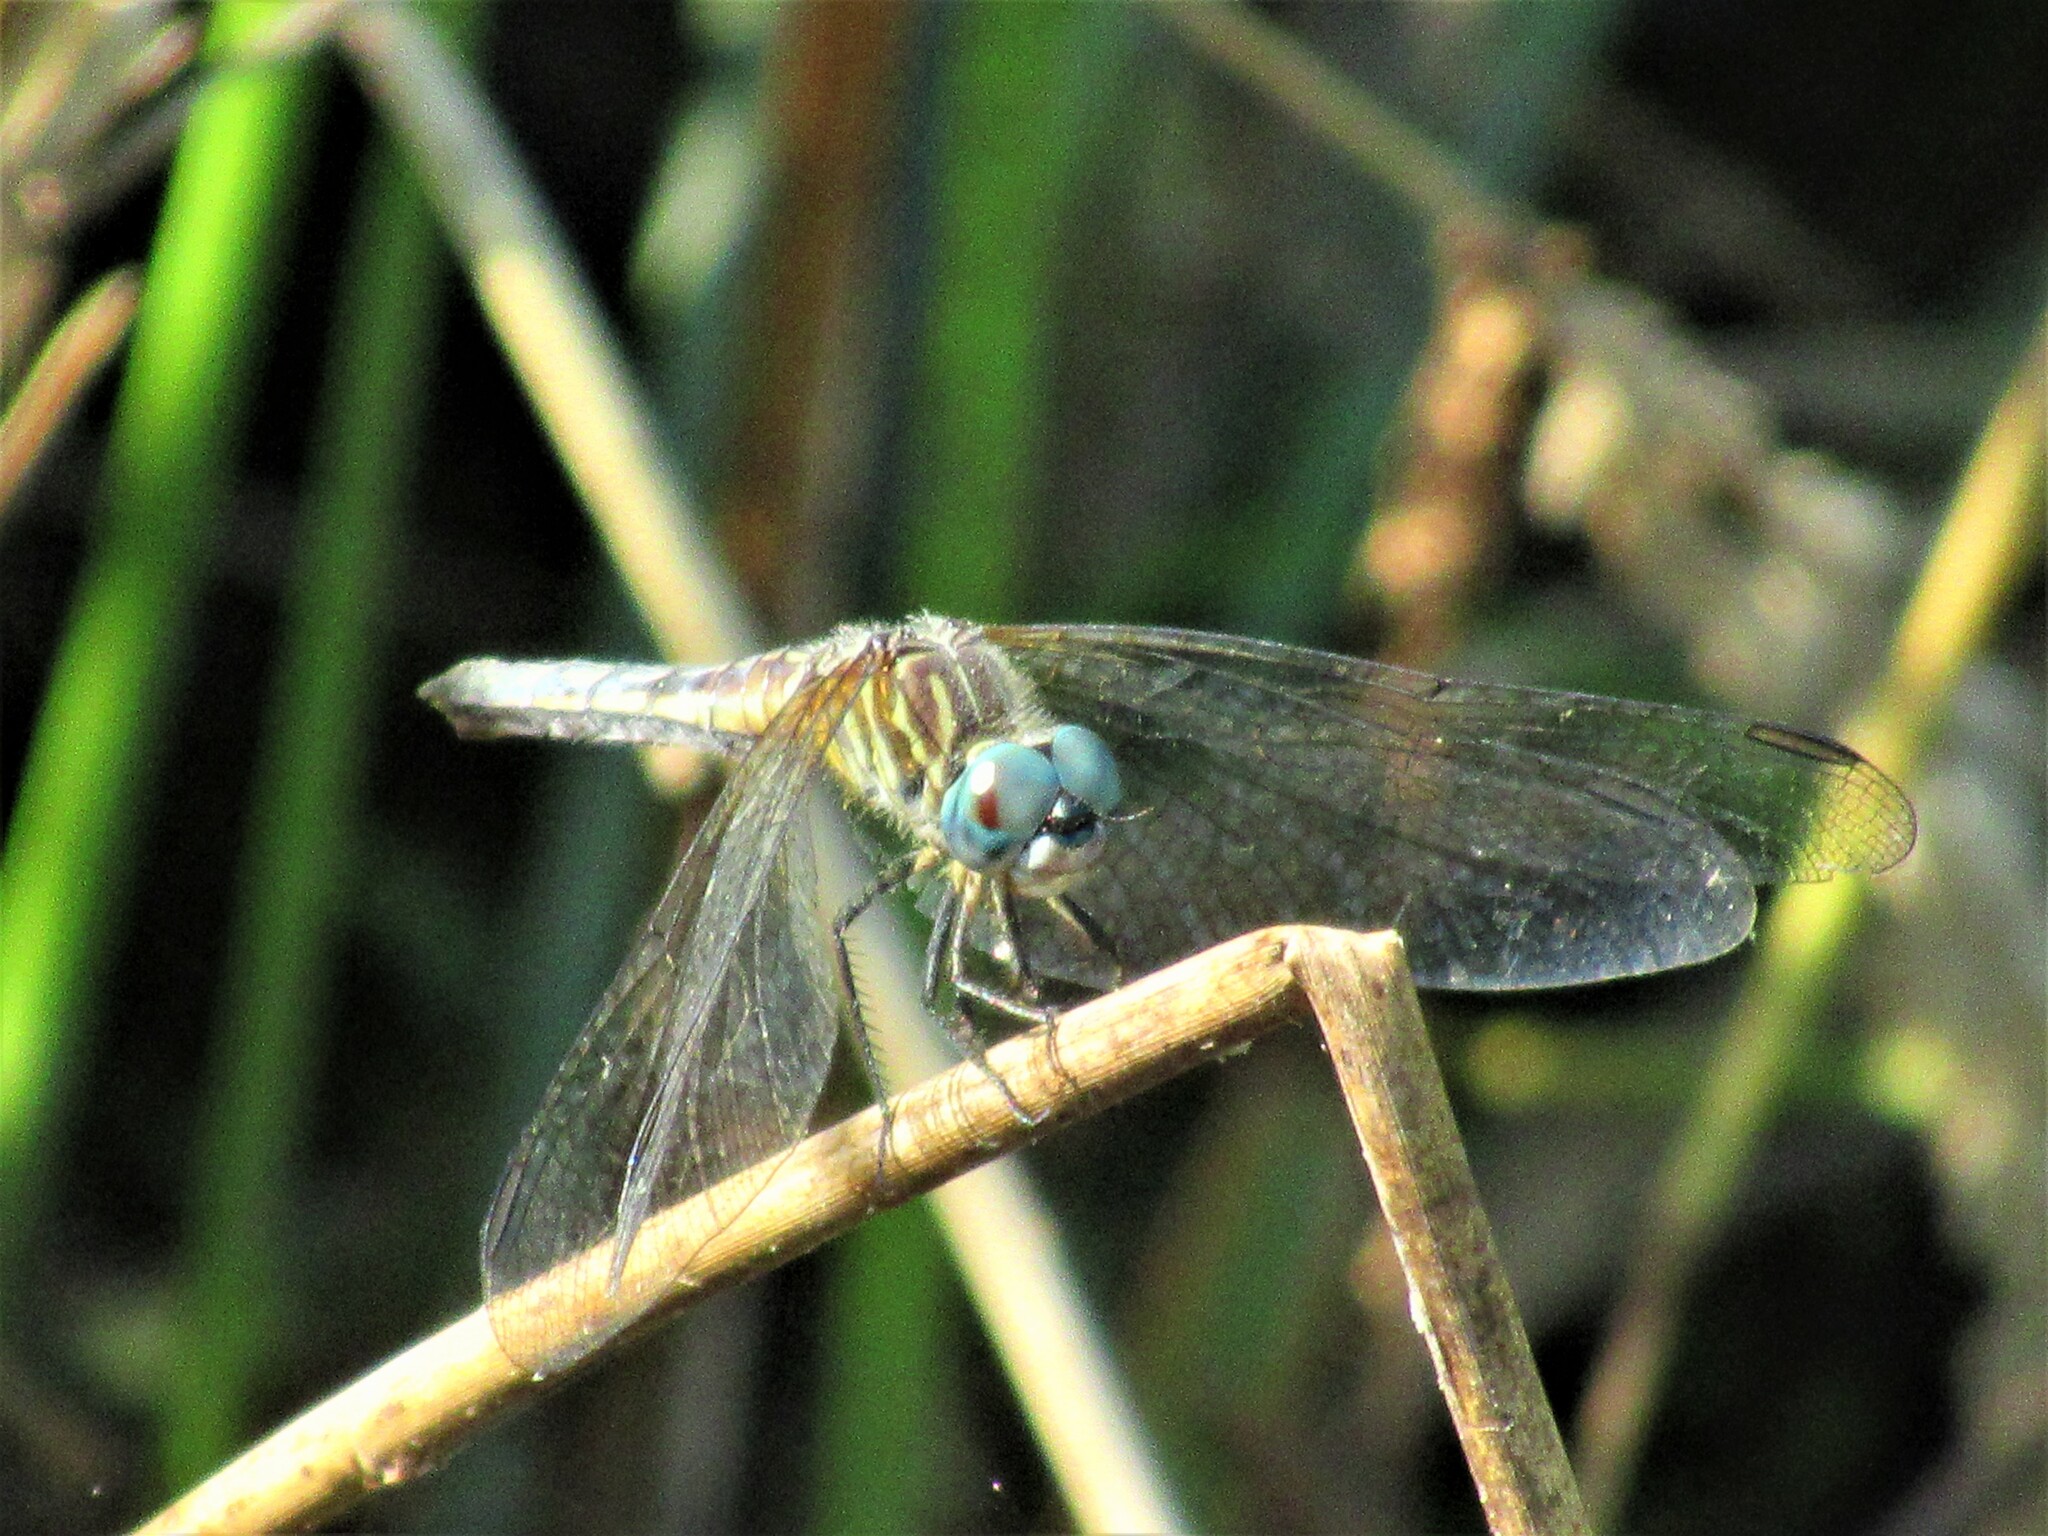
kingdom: Animalia
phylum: Arthropoda
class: Insecta
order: Odonata
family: Libellulidae
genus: Pachydiplax
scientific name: Pachydiplax longipennis
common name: Blue dasher
